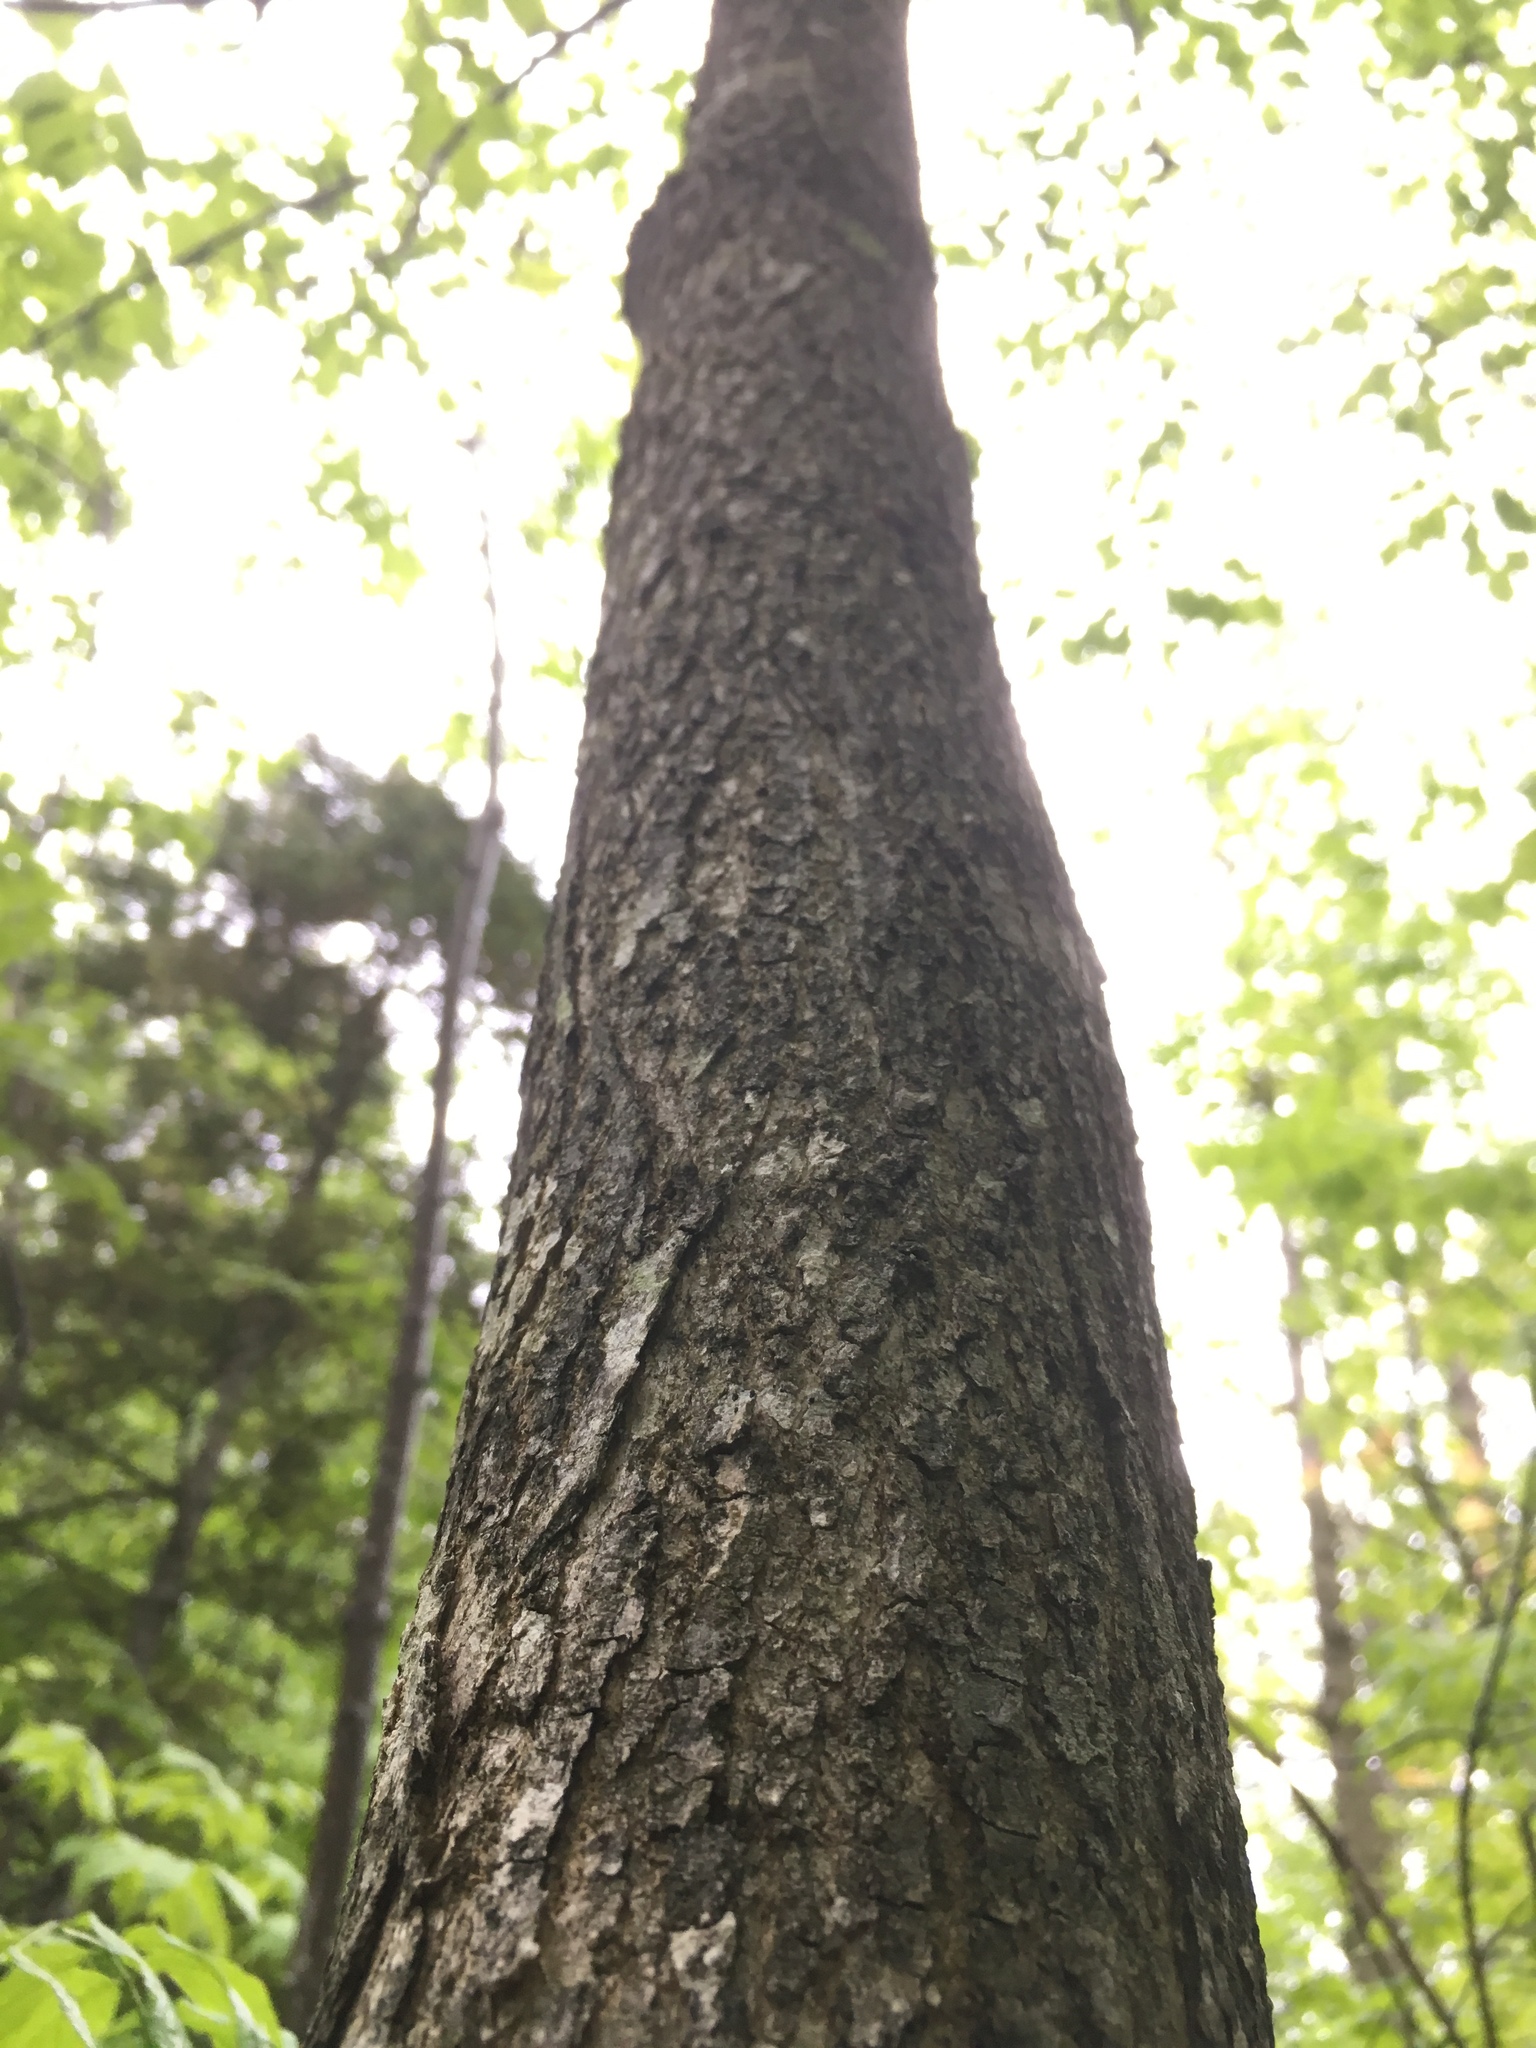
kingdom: Plantae
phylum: Tracheophyta
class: Magnoliopsida
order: Lamiales
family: Oleaceae
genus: Fraxinus
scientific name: Fraxinus pennsylvanica
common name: Green ash
